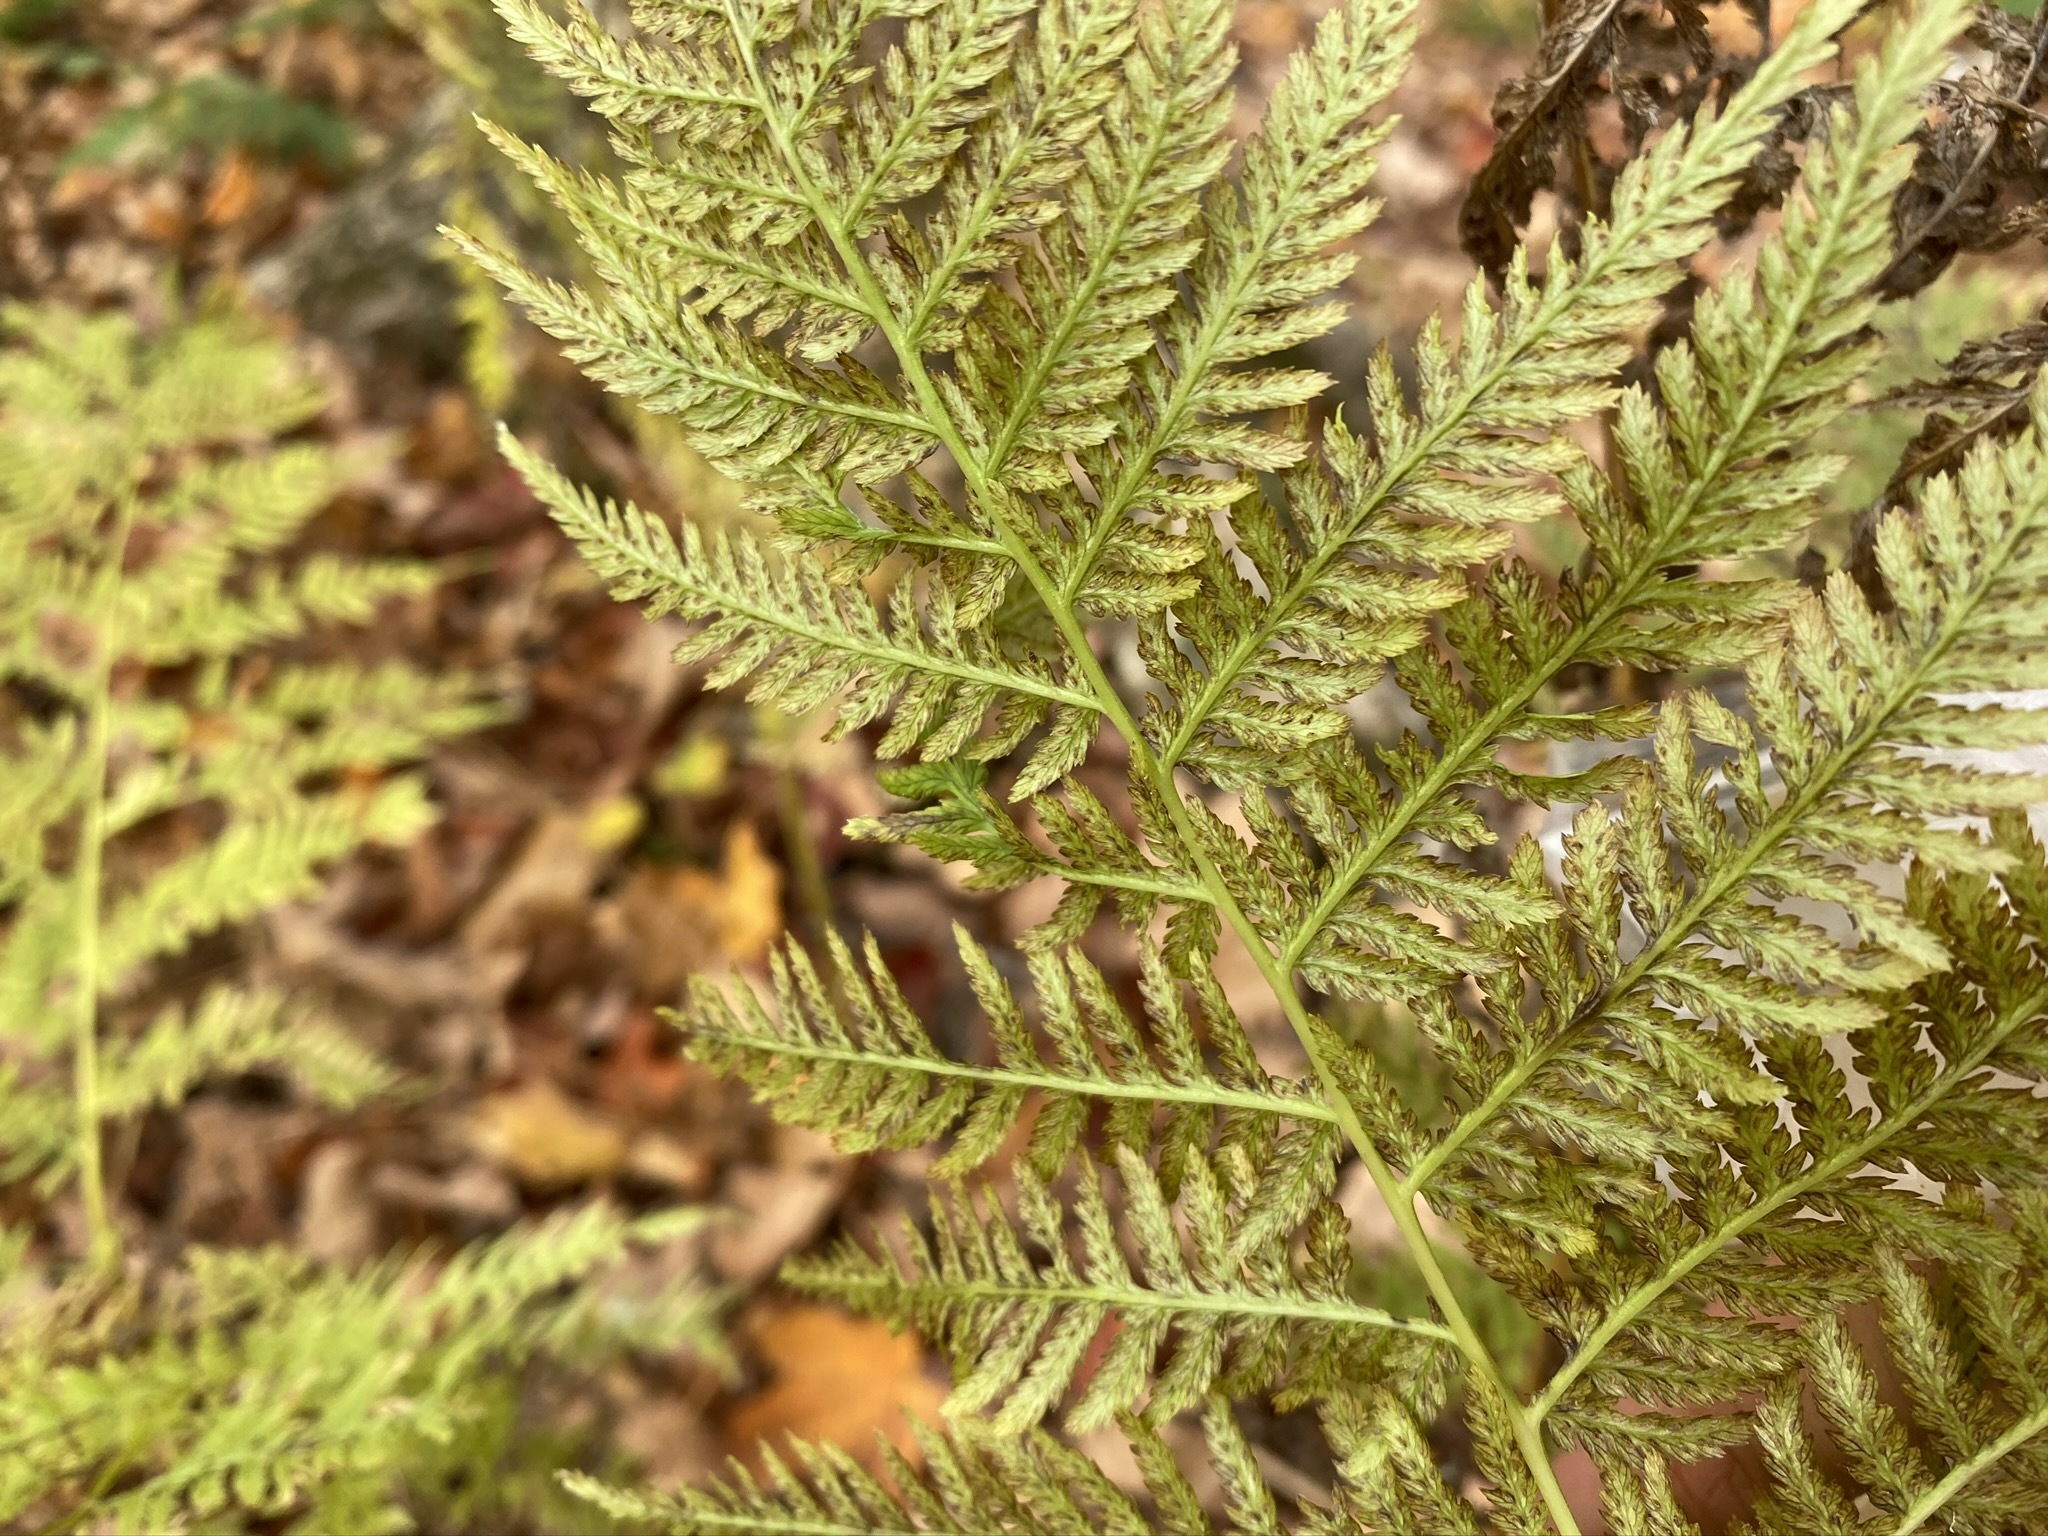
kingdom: Plantae
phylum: Tracheophyta
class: Polypodiopsida
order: Polypodiales
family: Athyriaceae
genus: Athyrium
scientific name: Athyrium angustum
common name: Northern lady fern
